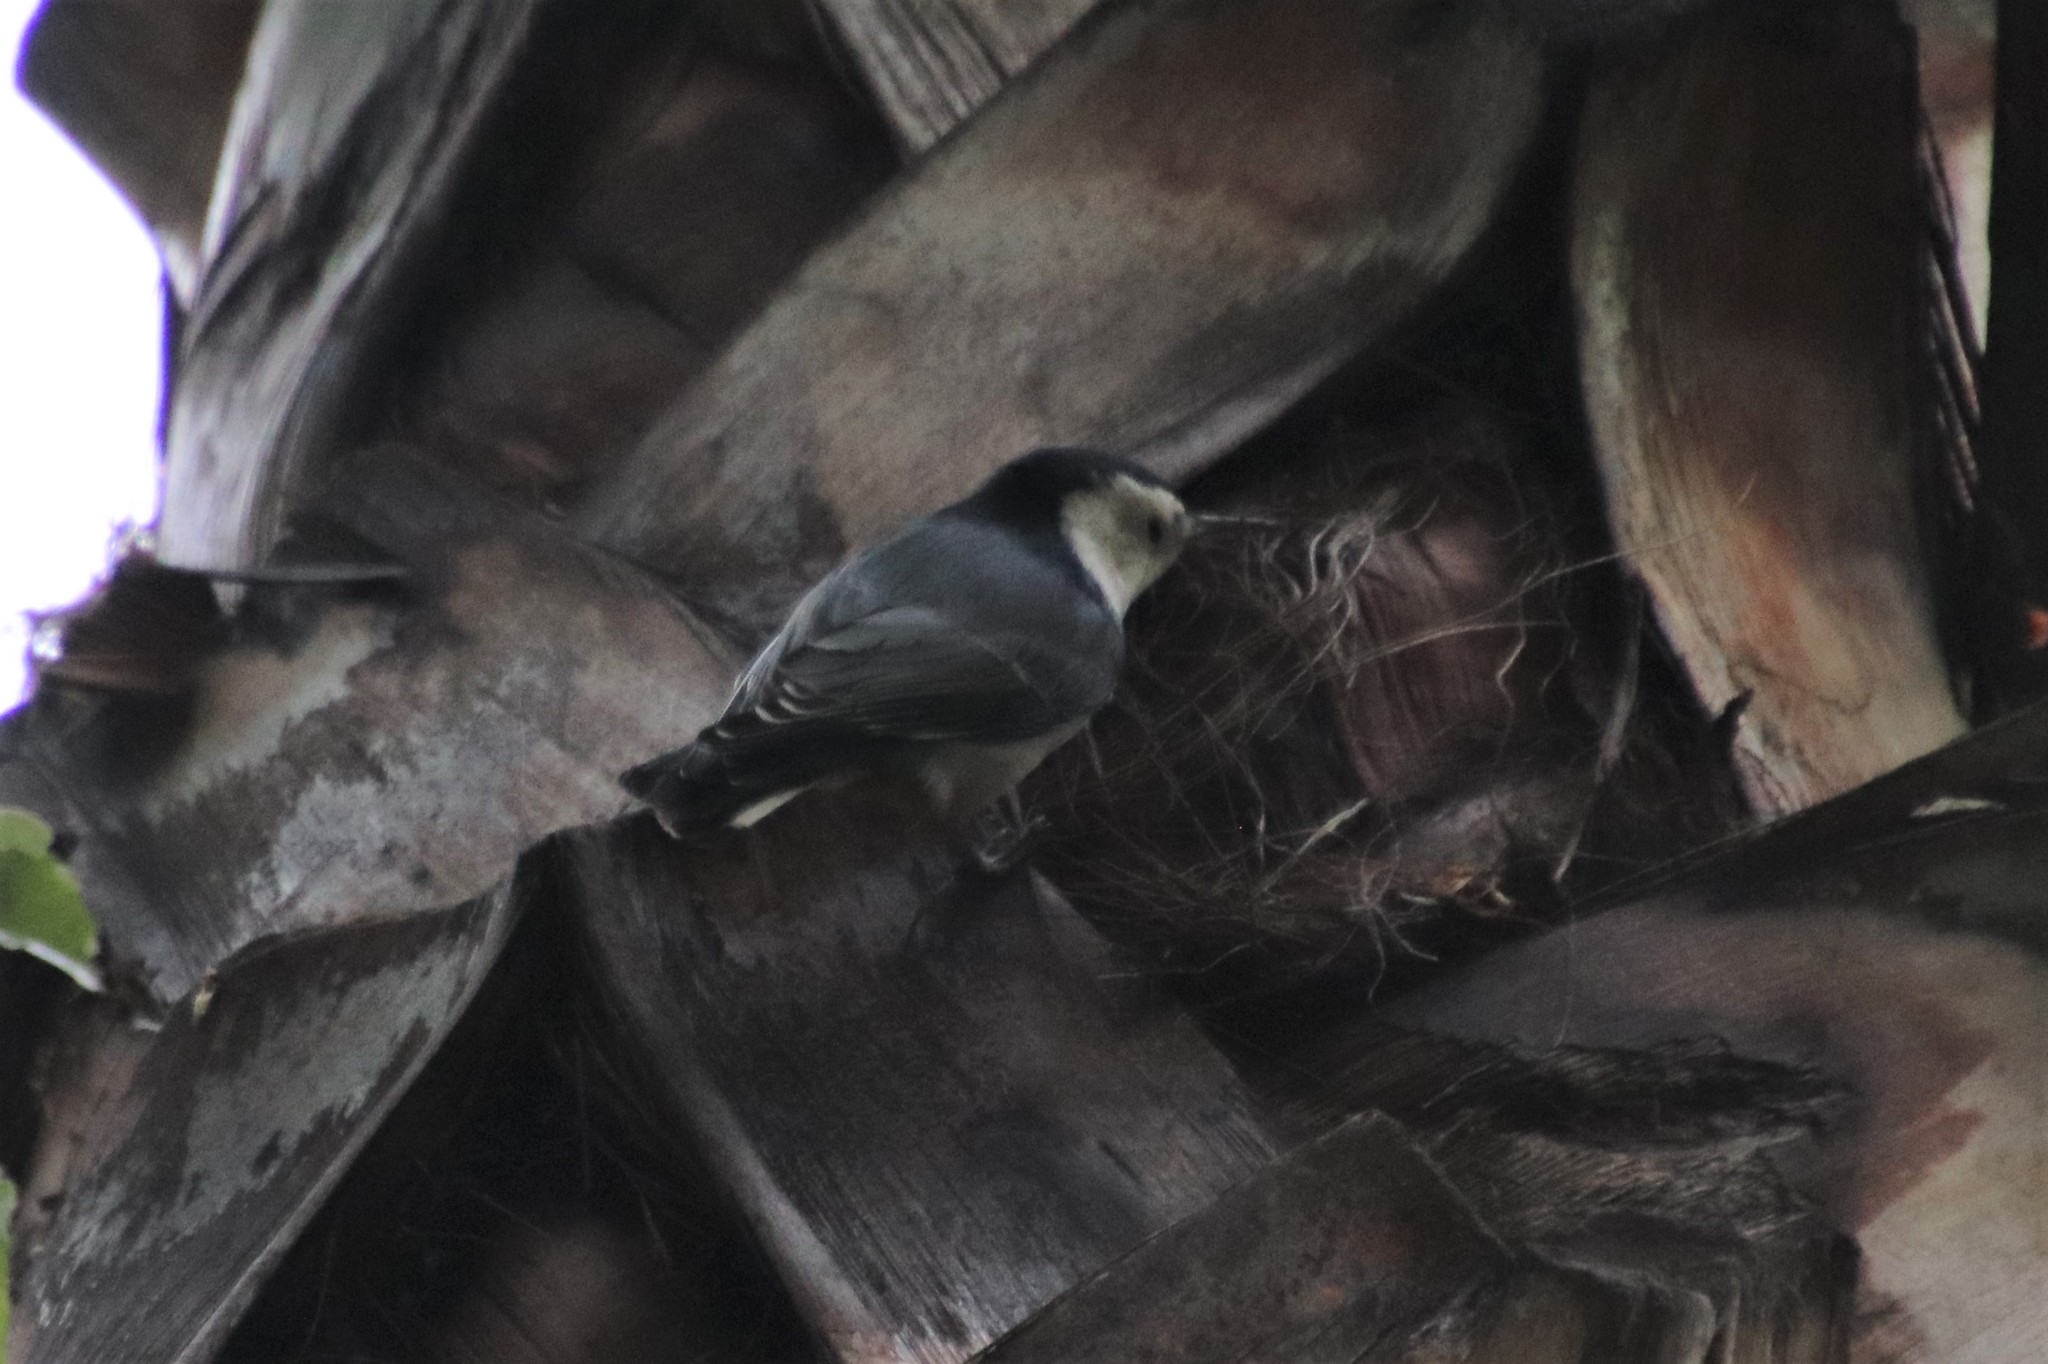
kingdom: Animalia
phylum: Chordata
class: Aves
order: Passeriformes
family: Sittidae
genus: Sitta
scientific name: Sitta carolinensis
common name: White-breasted nuthatch
